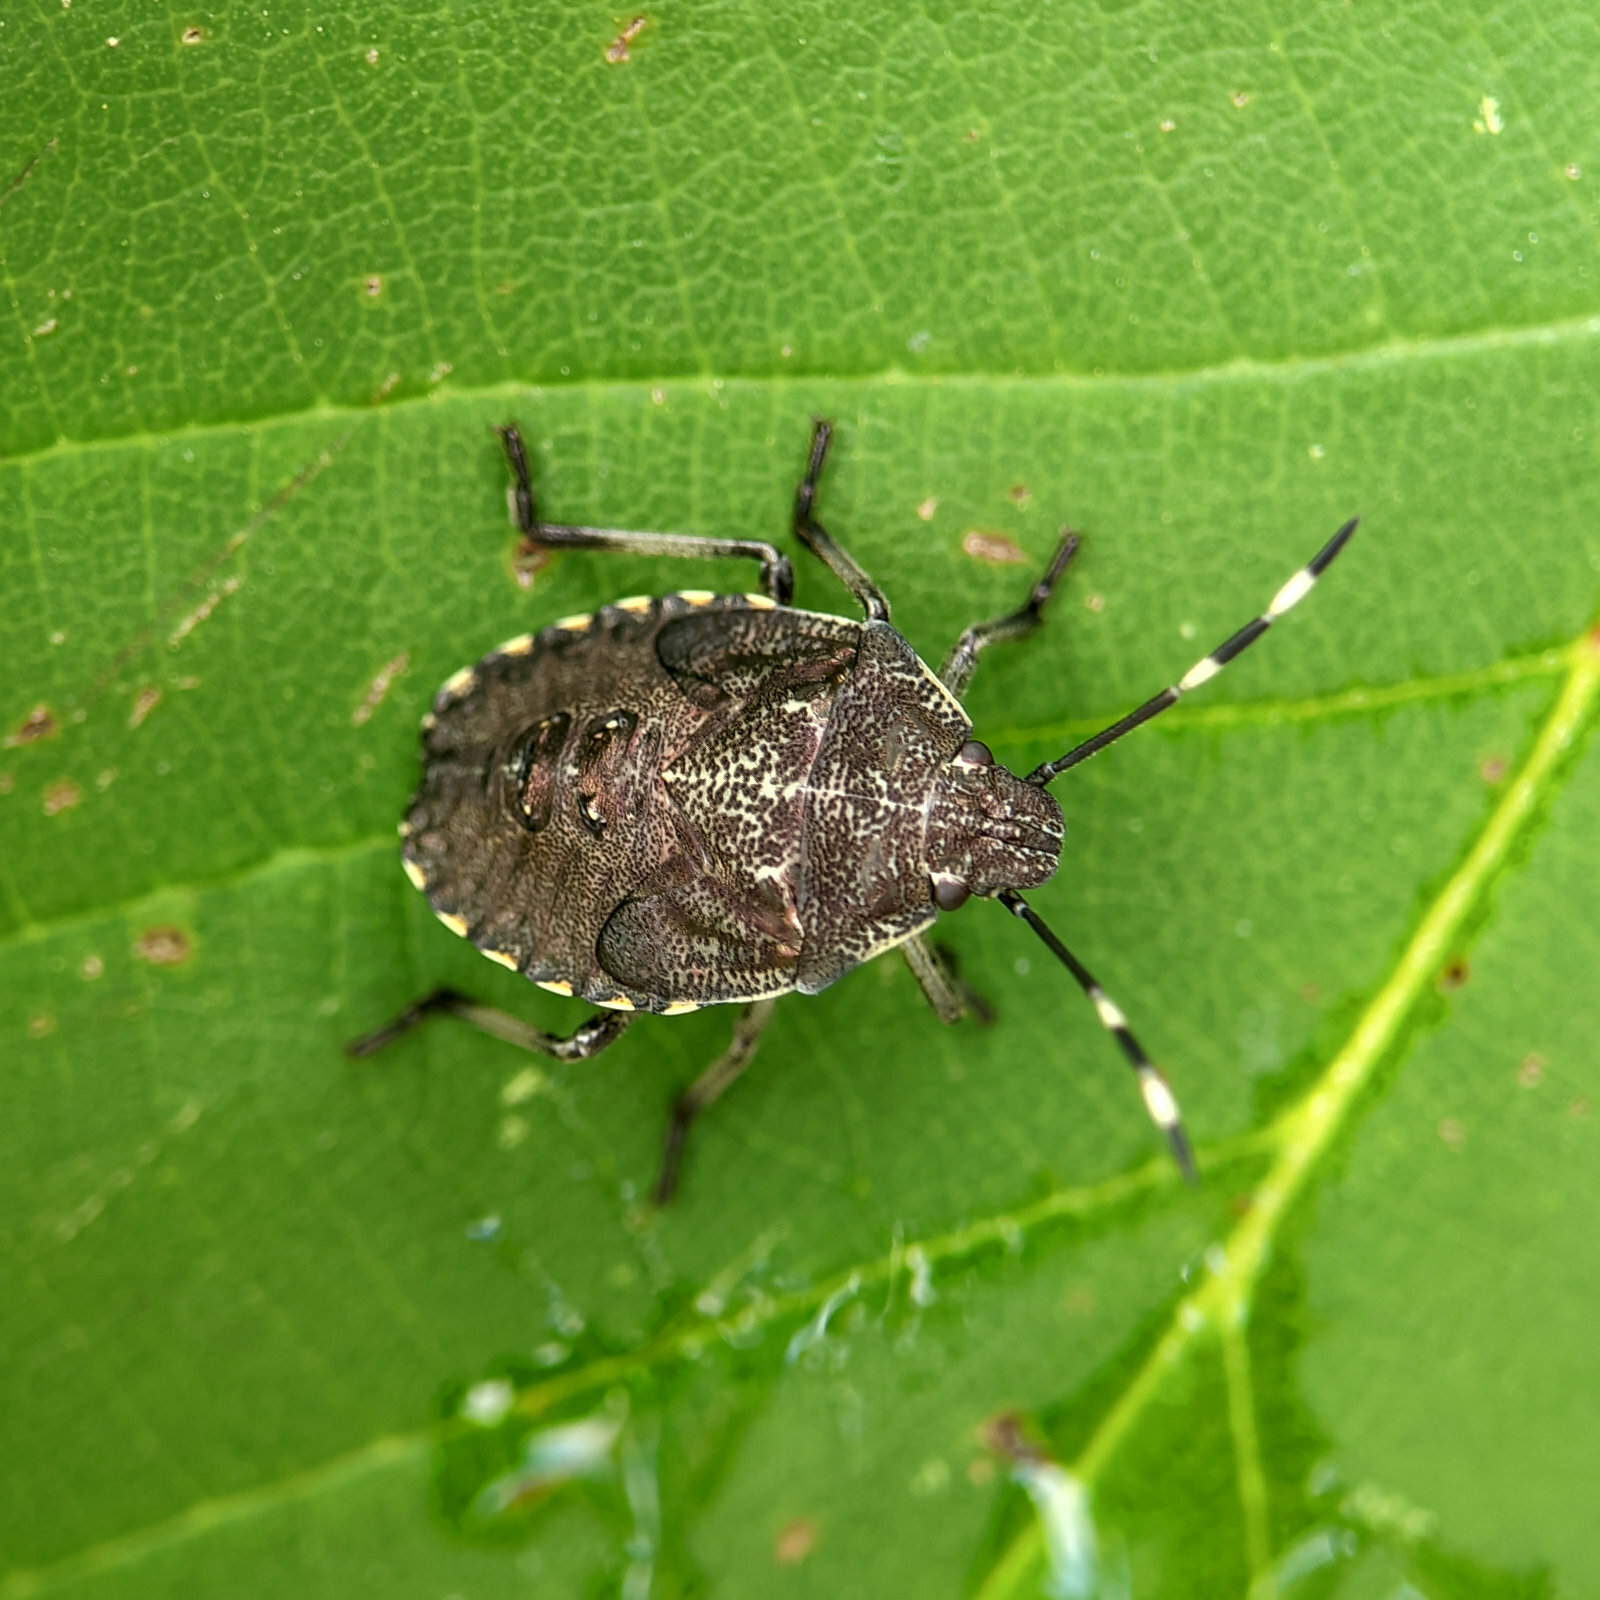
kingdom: Animalia
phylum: Arthropoda
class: Insecta
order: Hemiptera
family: Pentatomidae
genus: Rhaphigaster
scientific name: Rhaphigaster nebulosa
